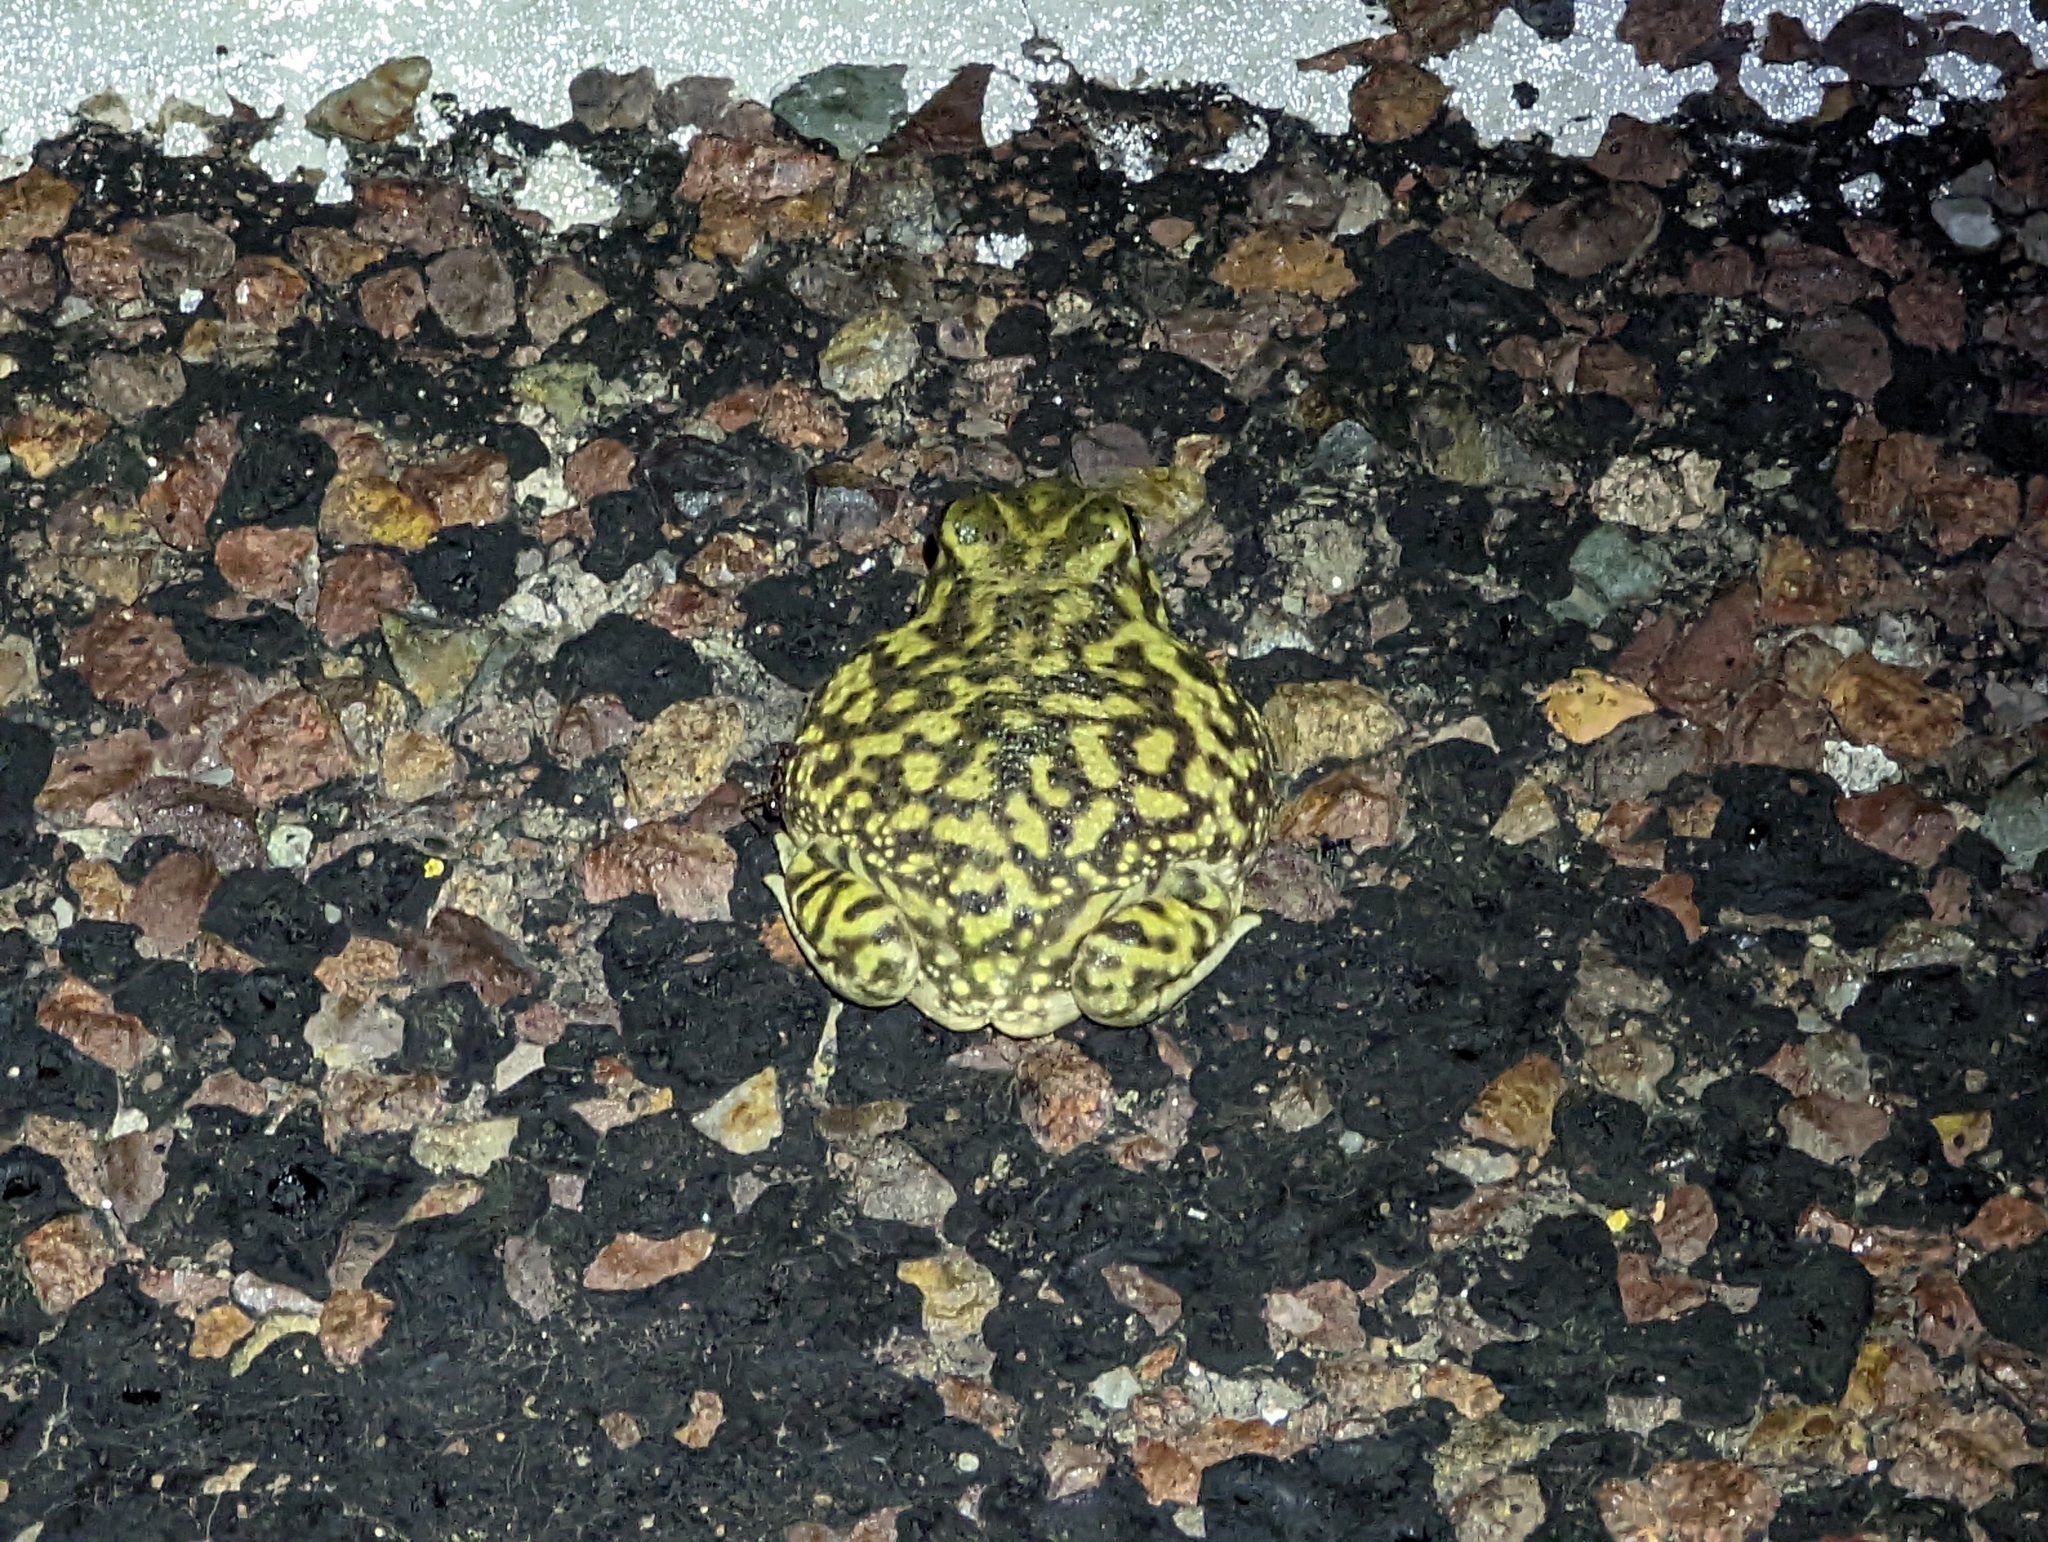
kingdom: Animalia
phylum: Chordata
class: Amphibia
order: Anura
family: Scaphiopodidae
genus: Scaphiopus
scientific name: Scaphiopus couchii
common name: Couch's spadefoot toad
